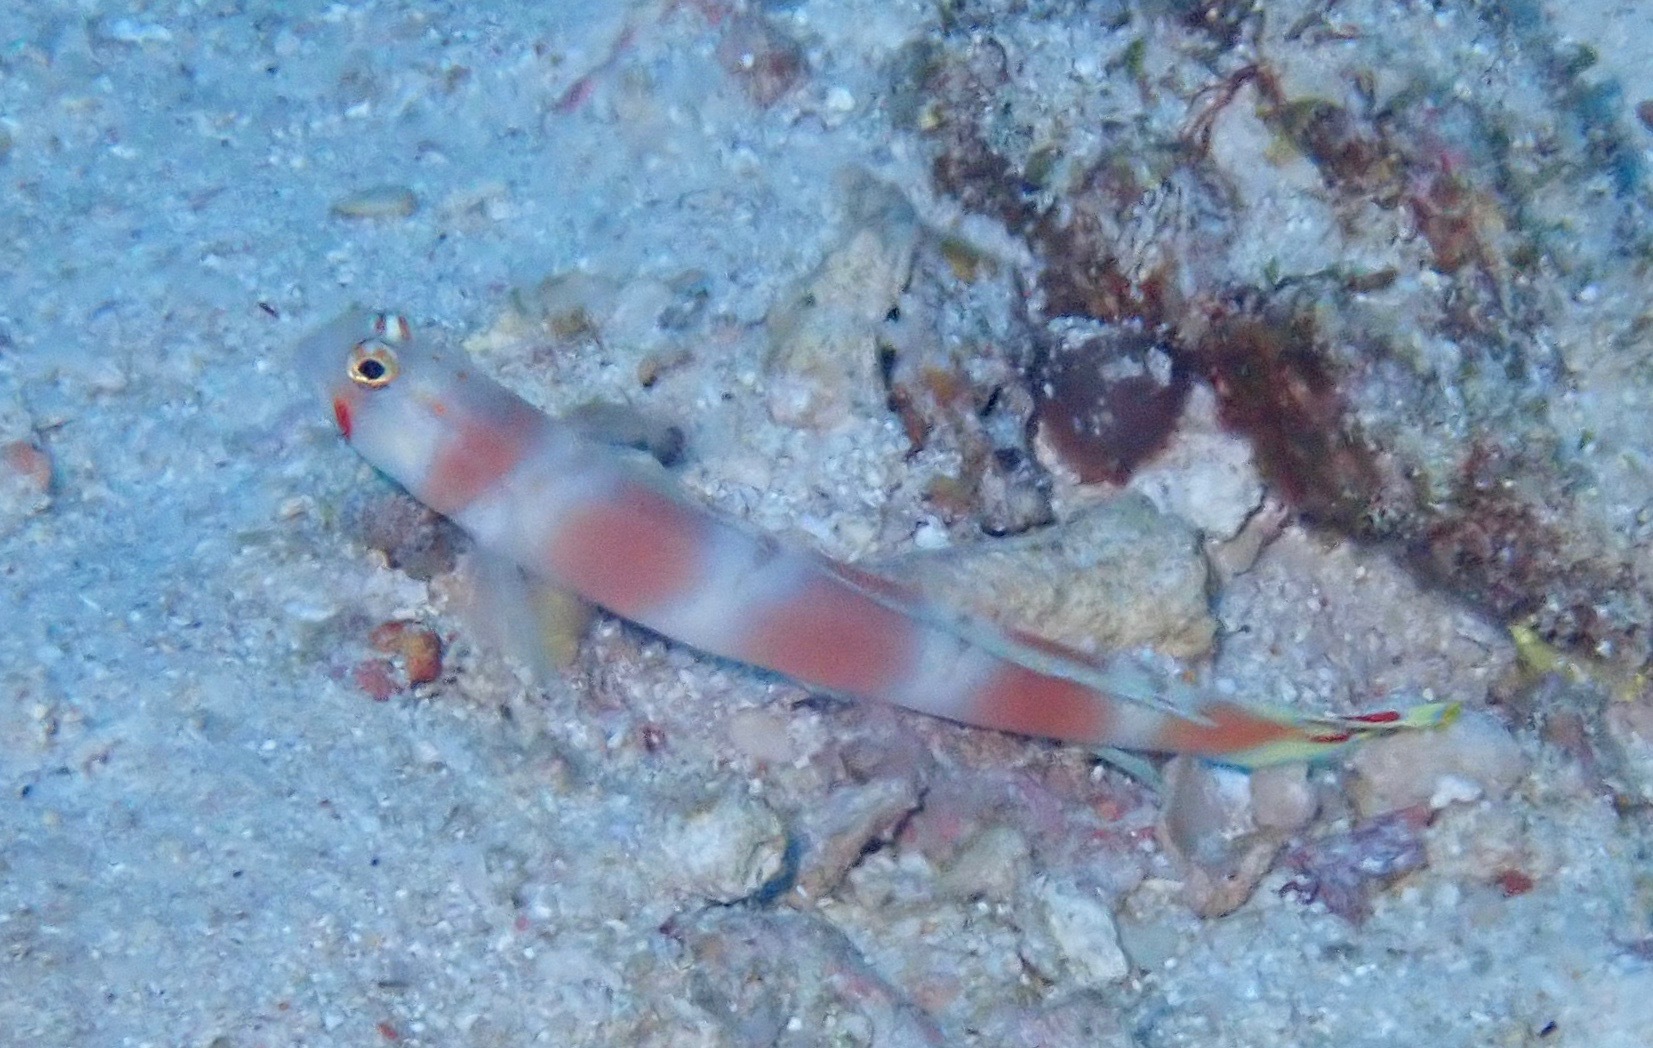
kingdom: Animalia
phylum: Chordata
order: Perciformes
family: Gobiidae
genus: Amblyeleotris
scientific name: Amblyeleotris aurora
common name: Pinkbar goby
